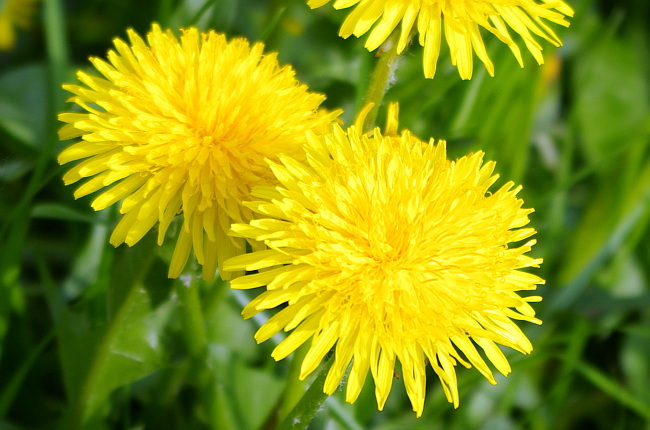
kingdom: Plantae
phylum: Tracheophyta
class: Magnoliopsida
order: Asterales
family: Asteraceae
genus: Taraxacum
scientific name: Taraxacum officinale
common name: Common dandelion
